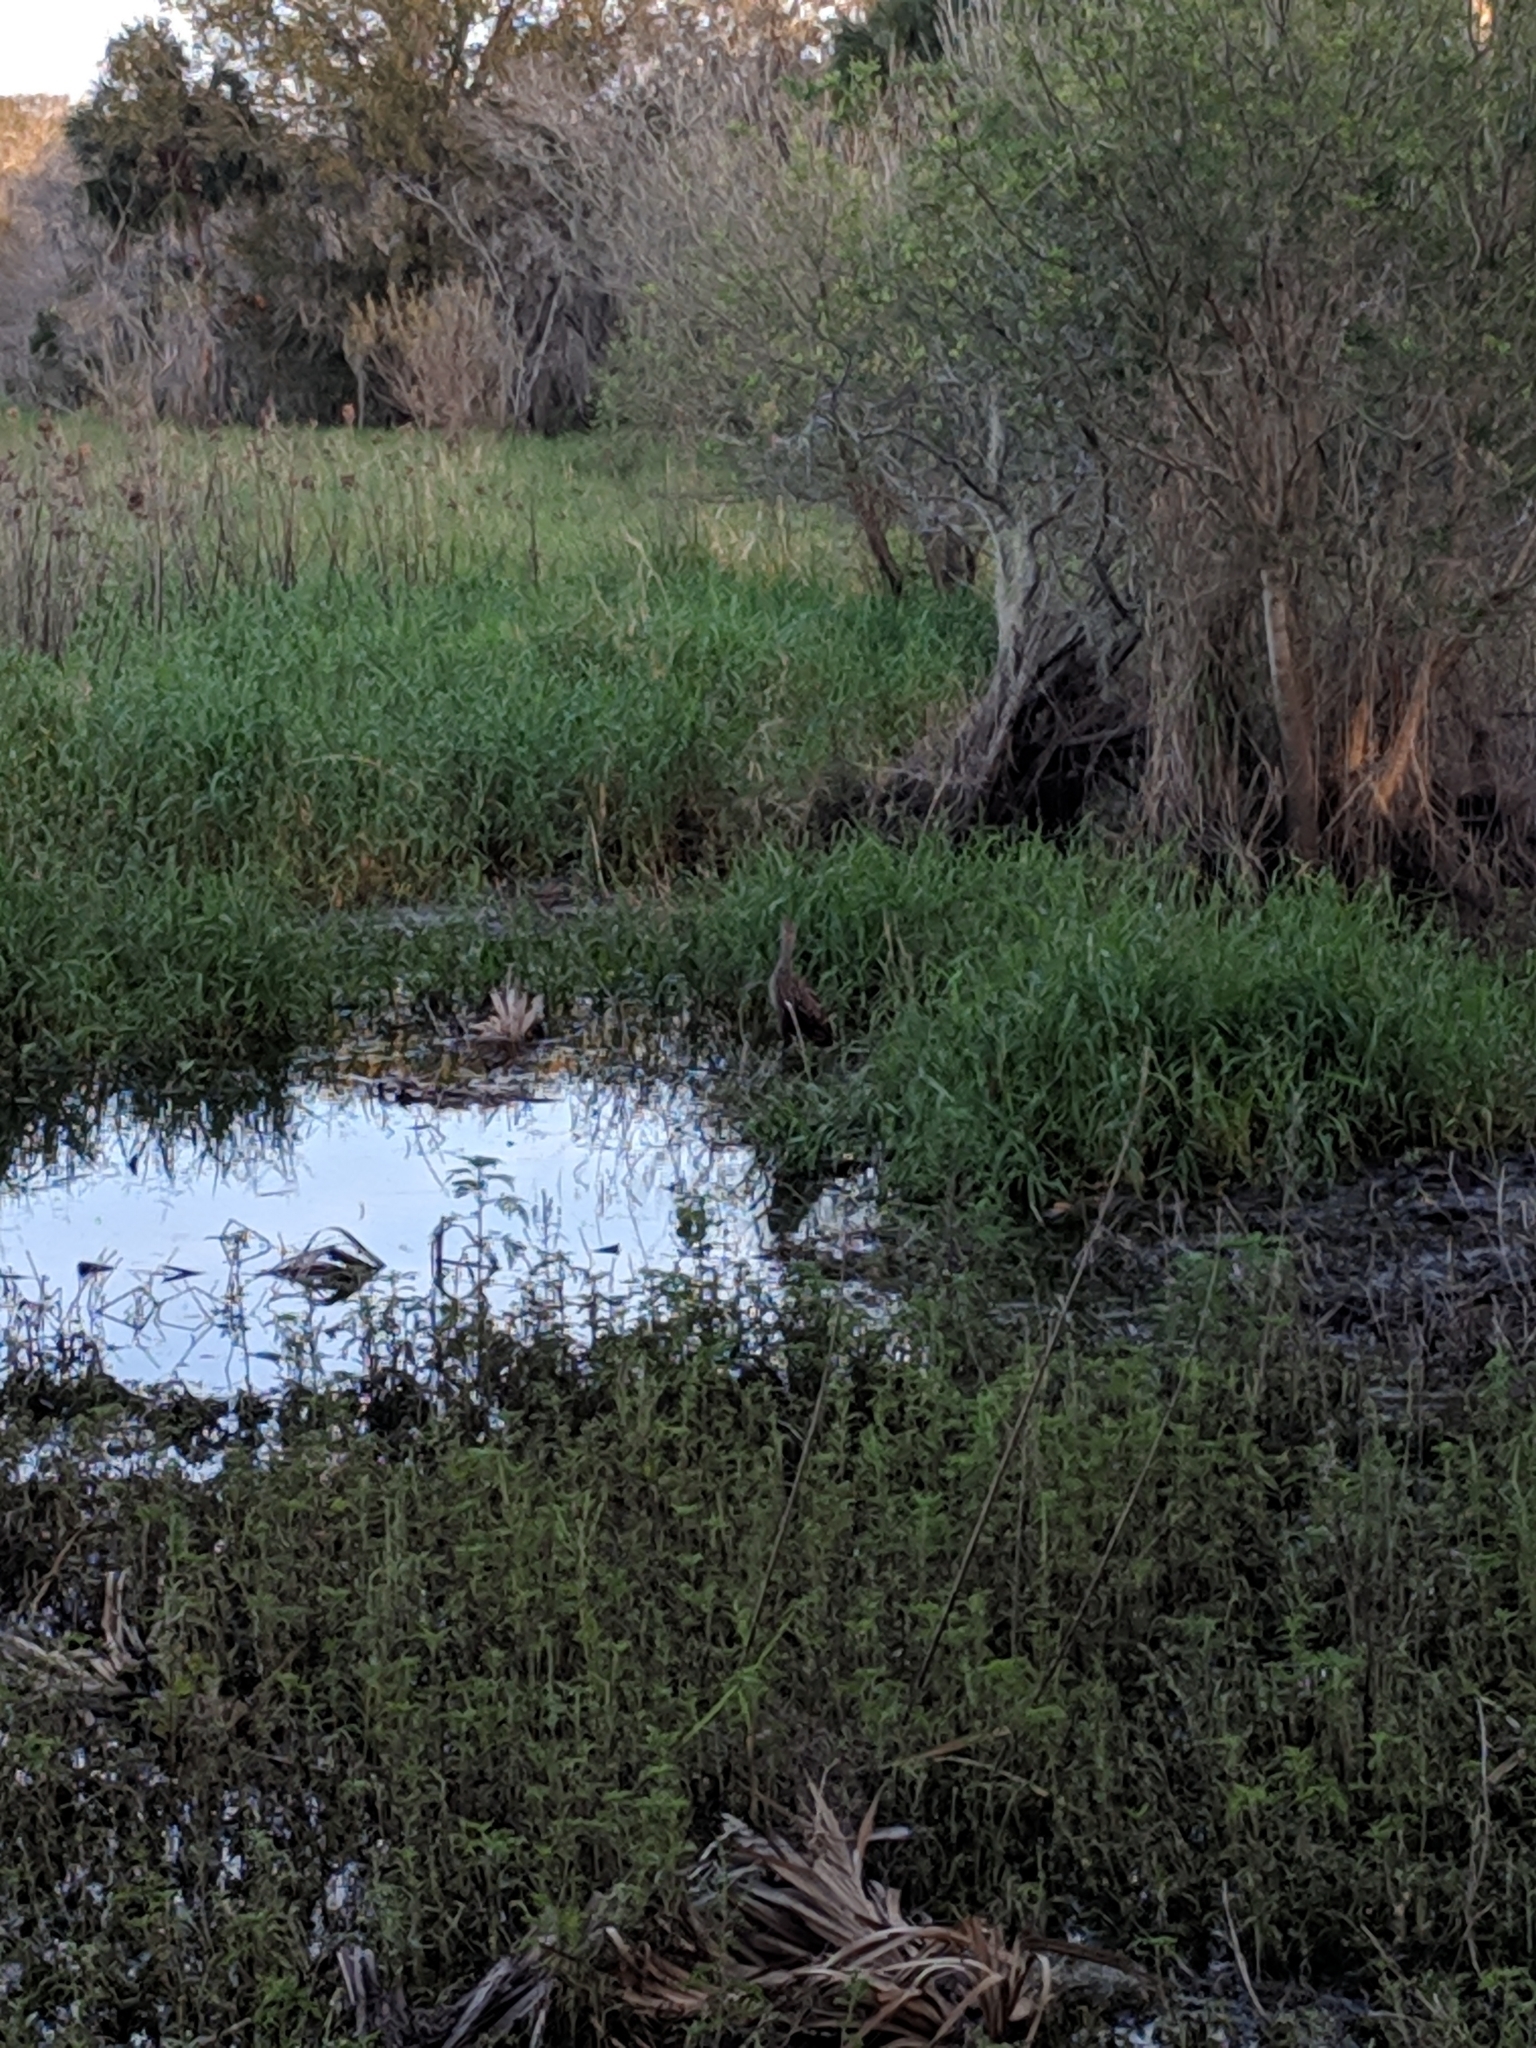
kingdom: Animalia
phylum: Chordata
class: Aves
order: Gruiformes
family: Aramidae
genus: Aramus
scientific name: Aramus guarauna
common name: Limpkin
